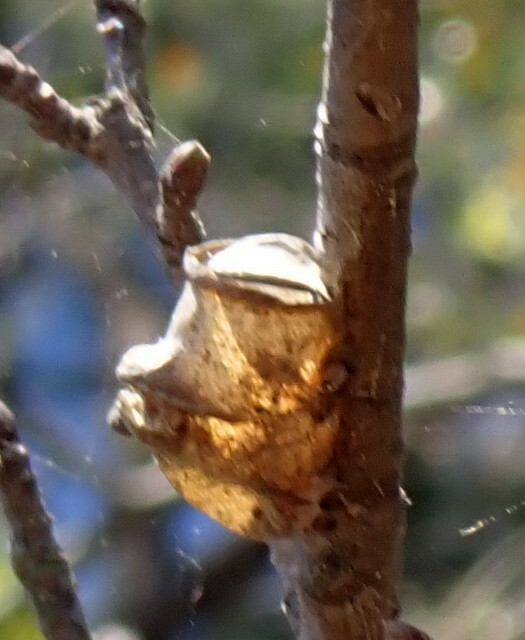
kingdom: Animalia
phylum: Arthropoda
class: Insecta
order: Lepidoptera
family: Megalopygidae
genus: Megalopyge
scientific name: Megalopyge
